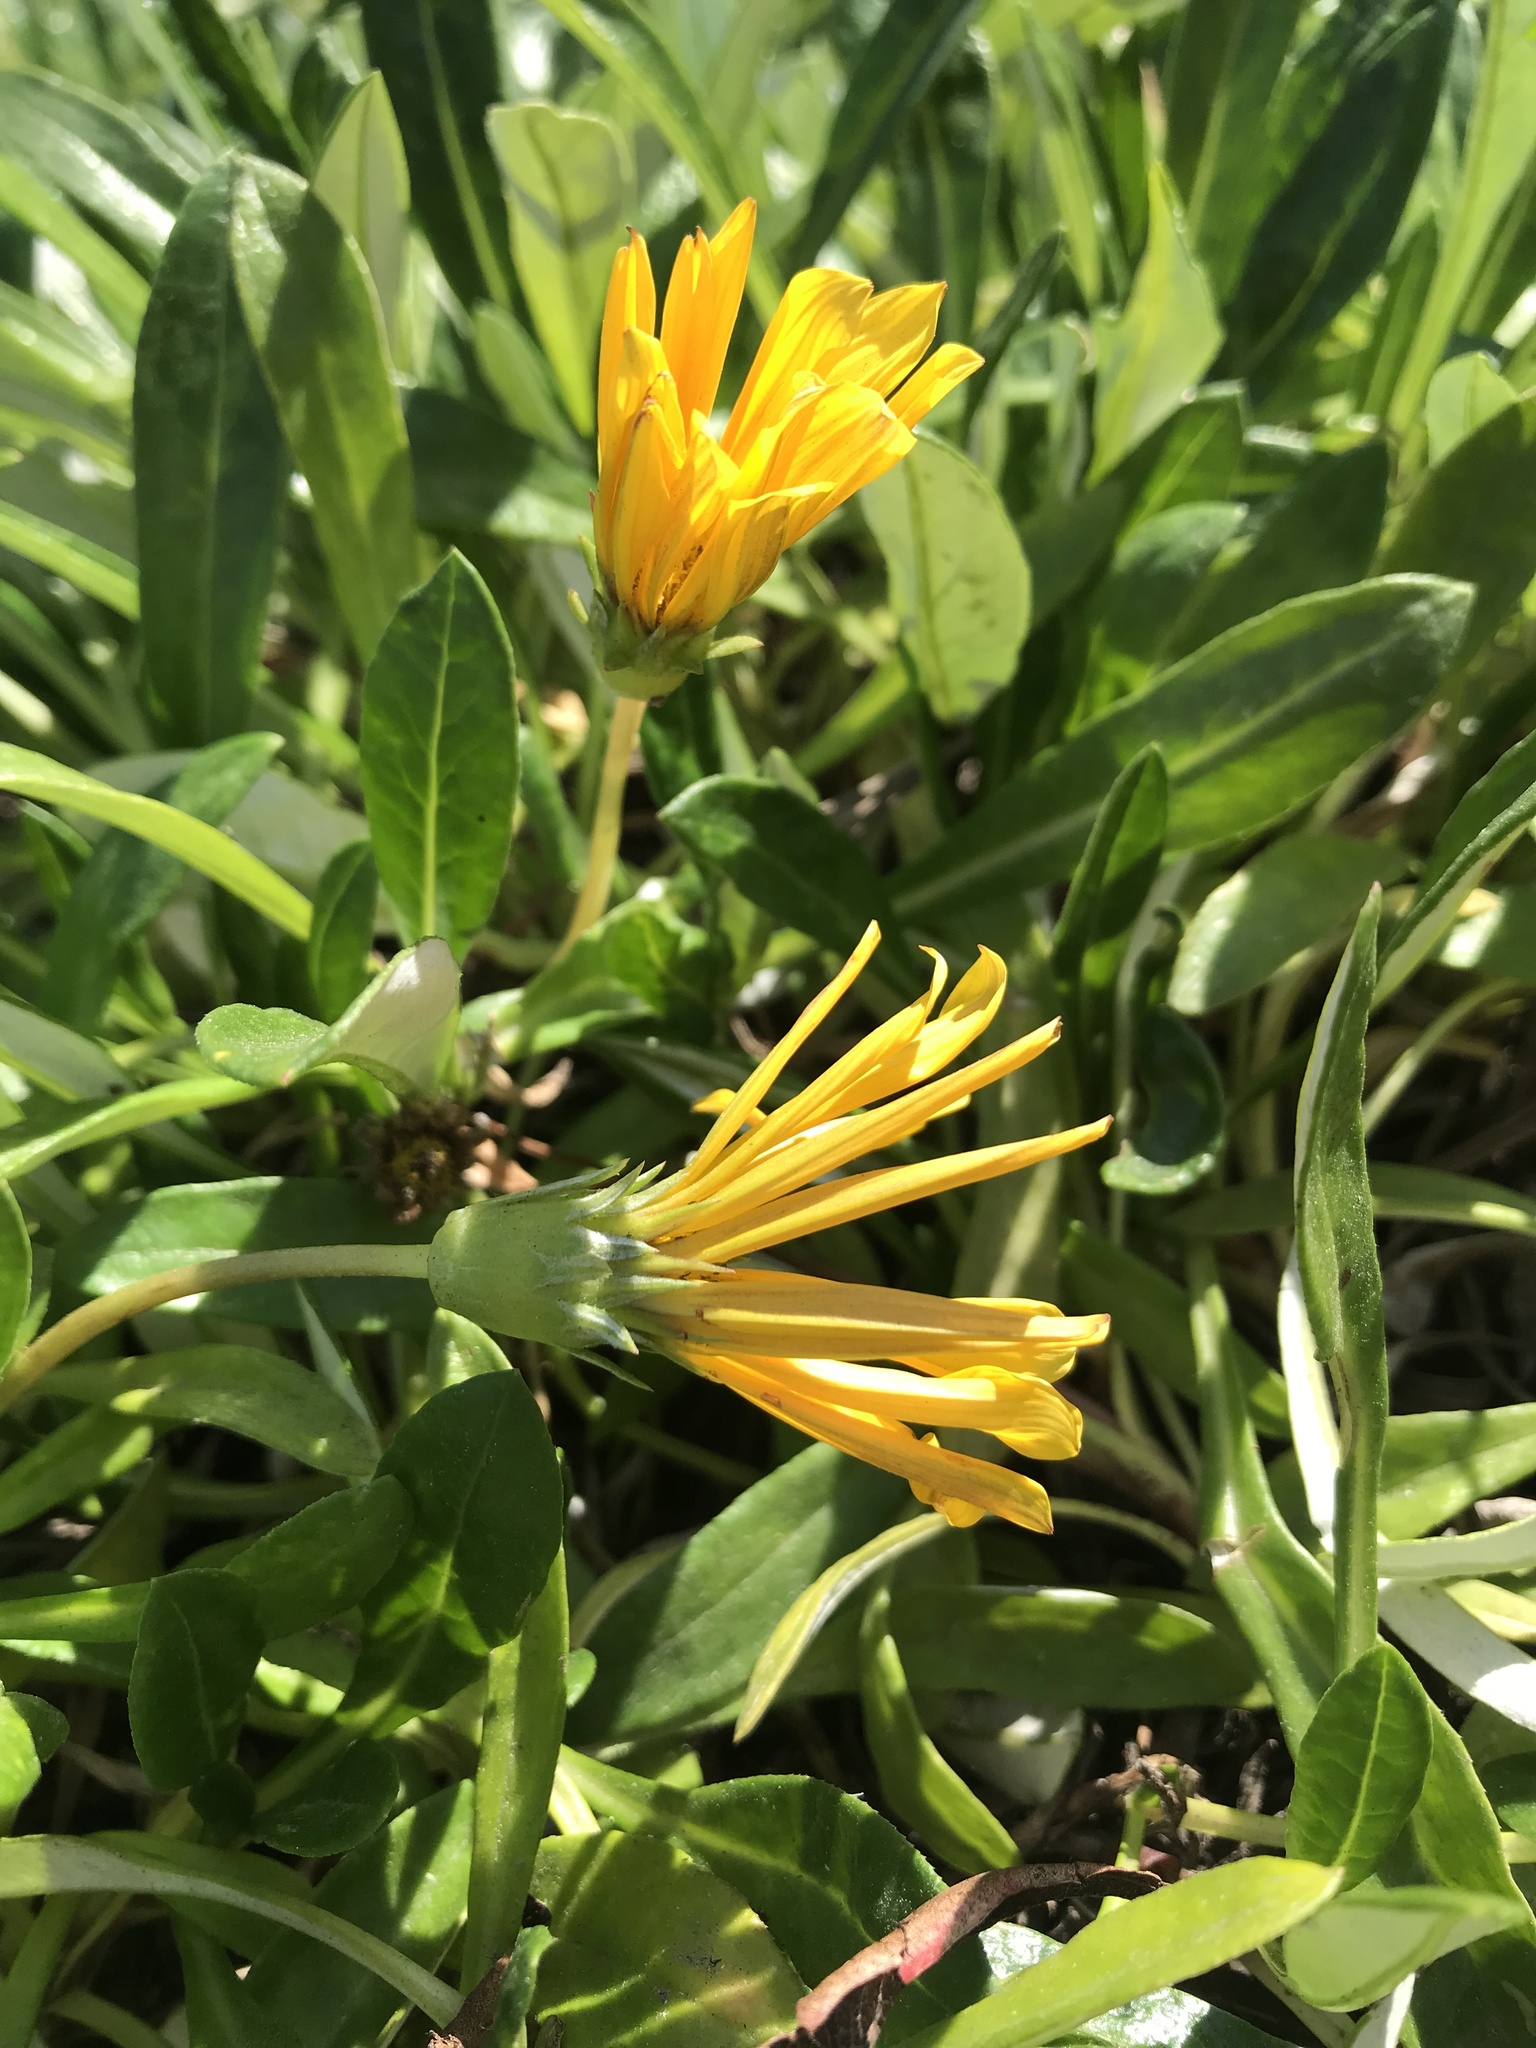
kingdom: Plantae
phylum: Tracheophyta
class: Magnoliopsida
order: Asterales
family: Asteraceae
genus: Gazania
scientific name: Gazania rigens
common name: Treasureflower
